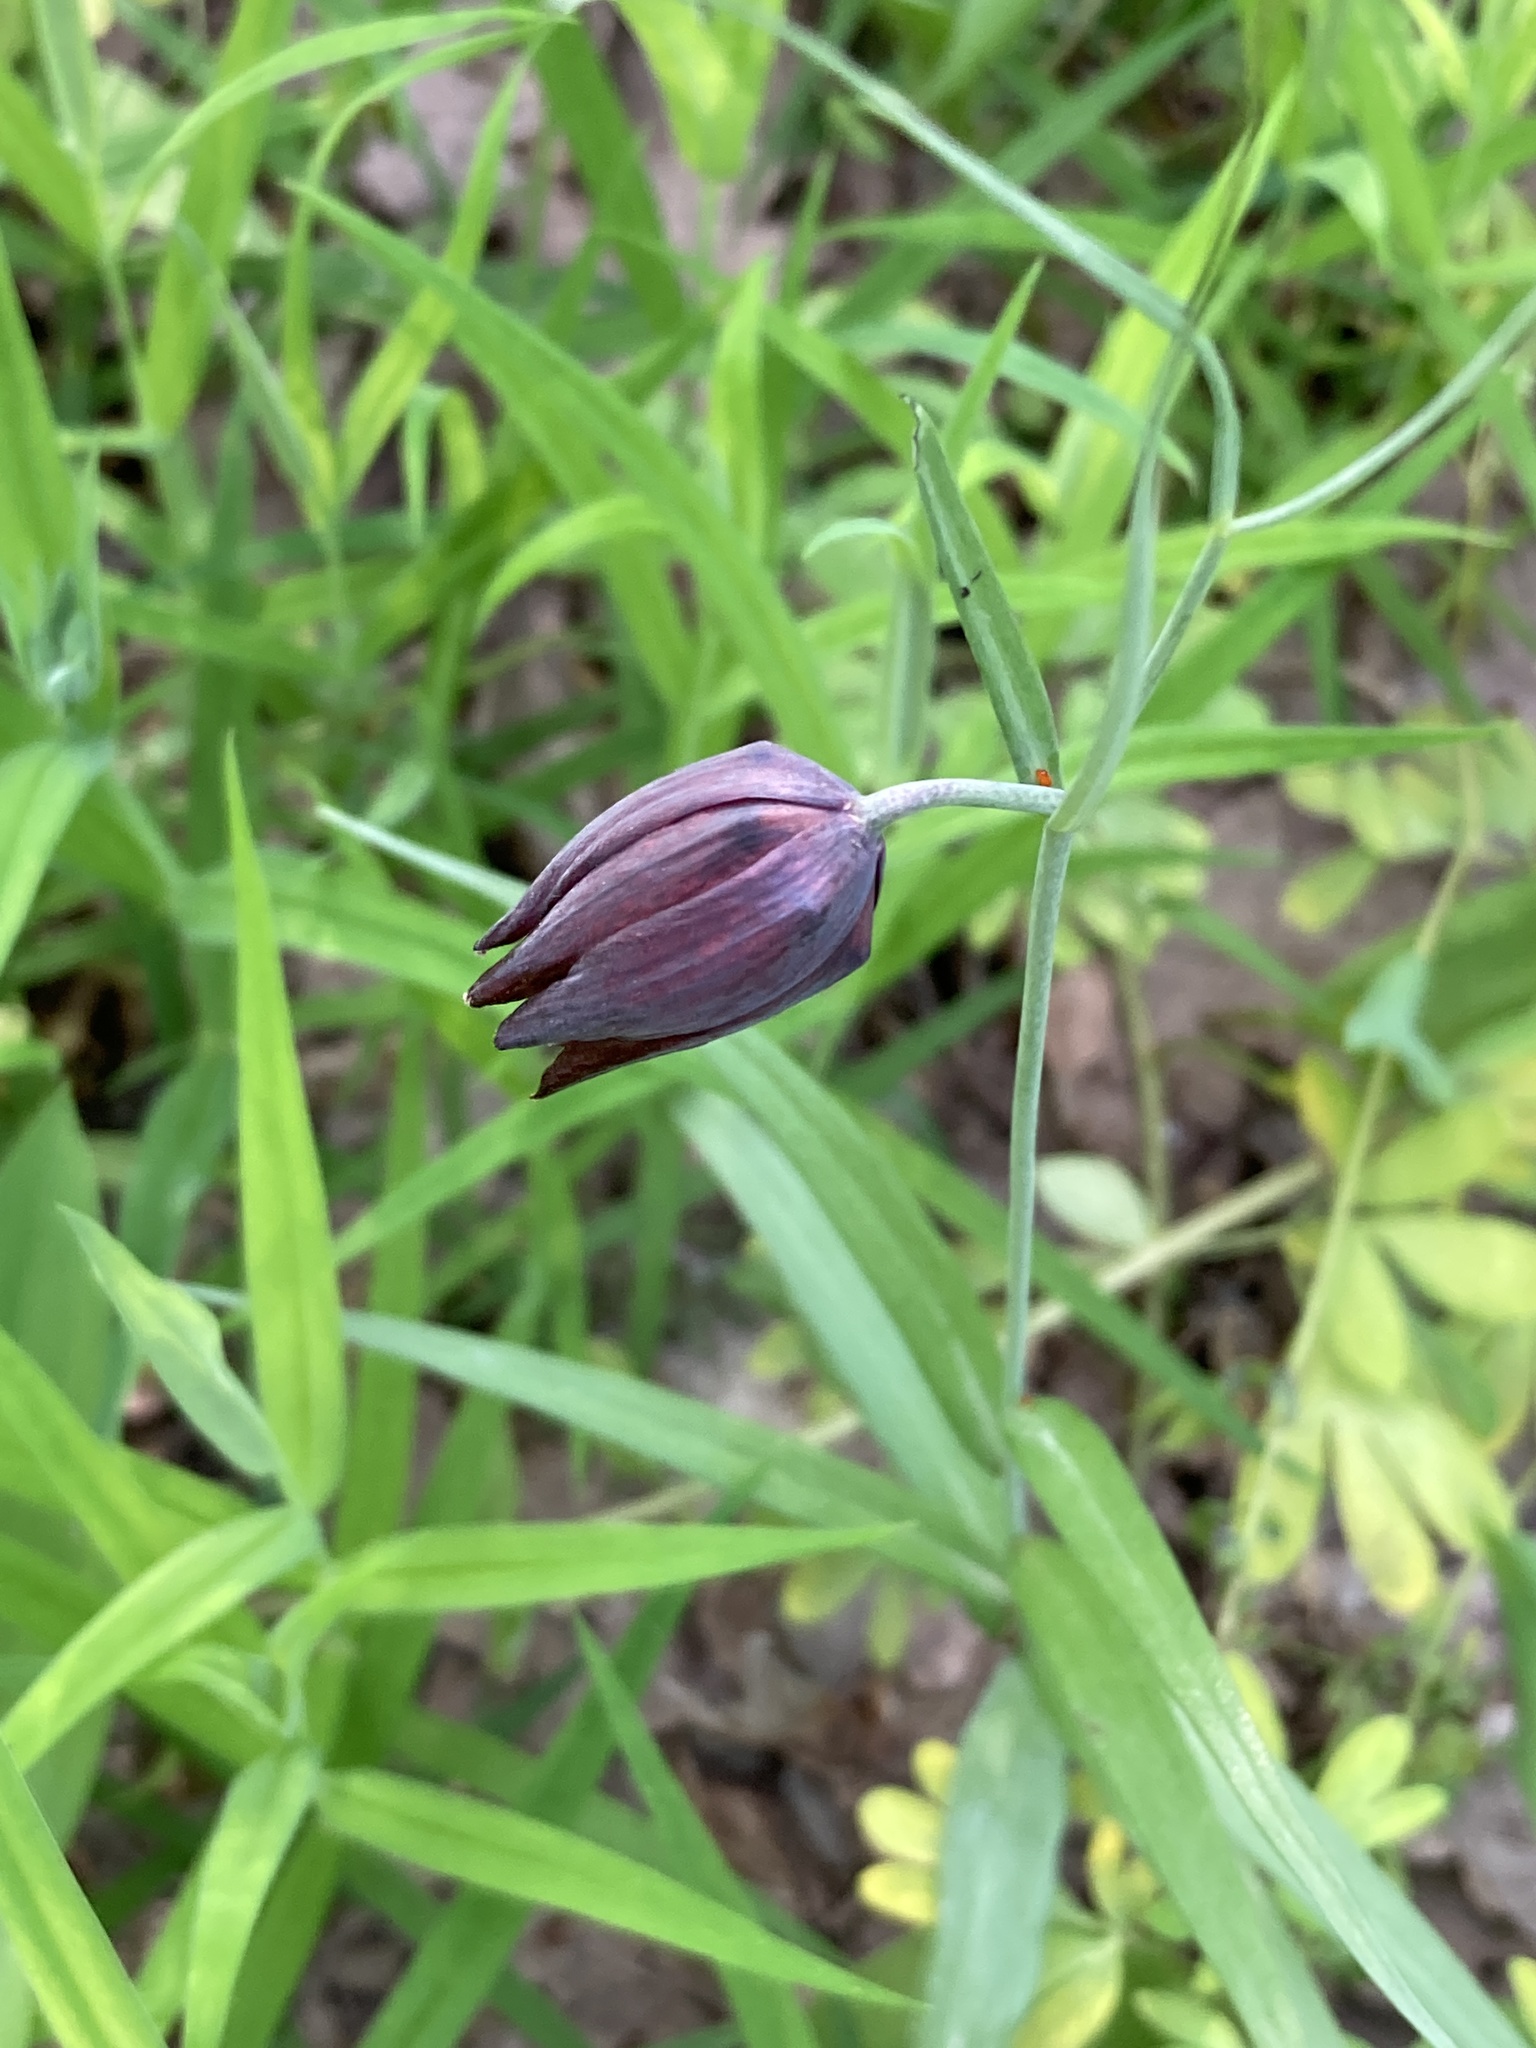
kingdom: Plantae
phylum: Tracheophyta
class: Liliopsida
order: Liliales
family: Liliaceae
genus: Fritillaria
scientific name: Fritillaria ruthenica
